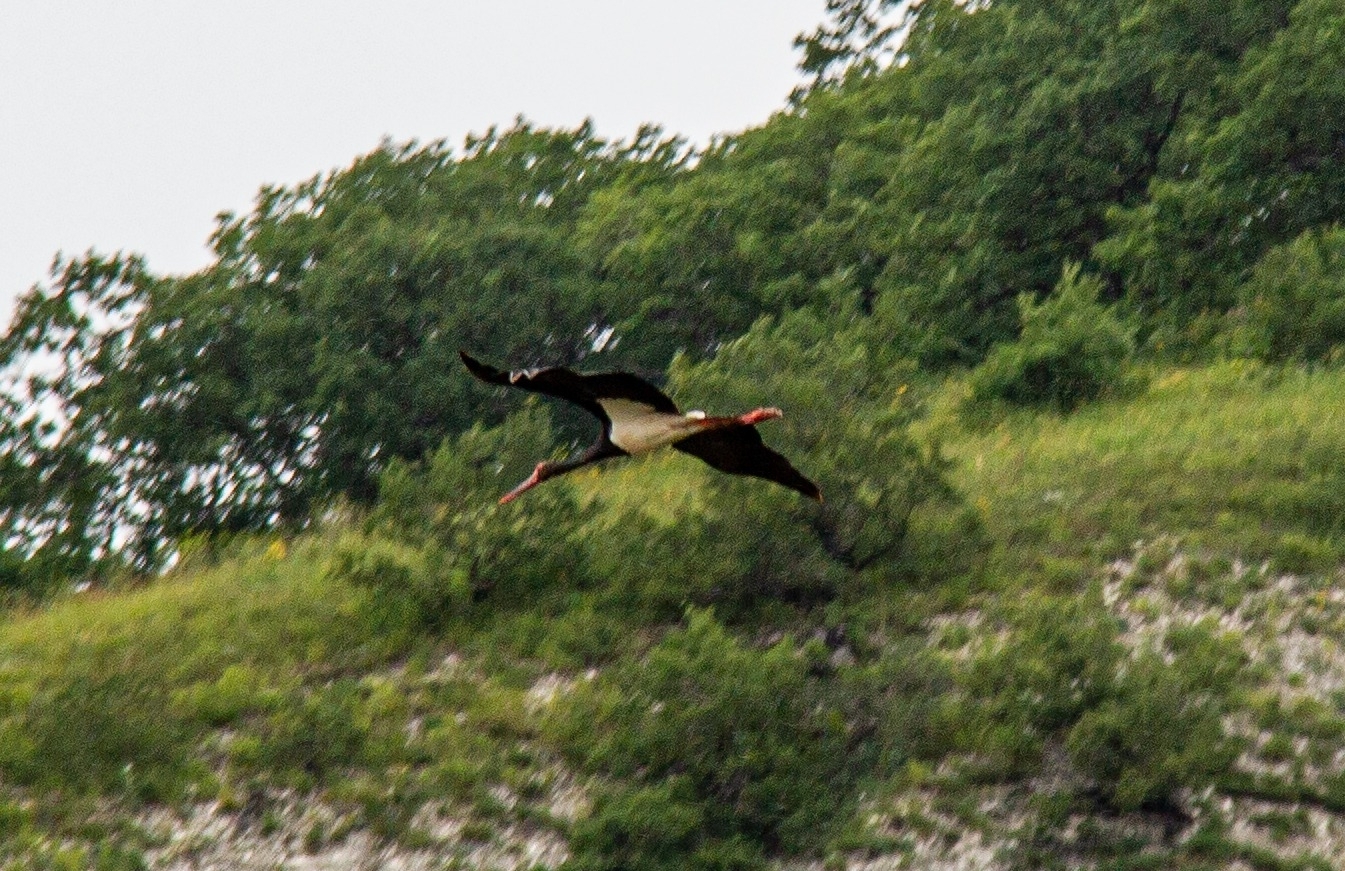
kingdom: Animalia
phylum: Chordata
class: Aves
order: Ciconiiformes
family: Ciconiidae
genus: Ciconia
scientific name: Ciconia nigra
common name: Black stork
